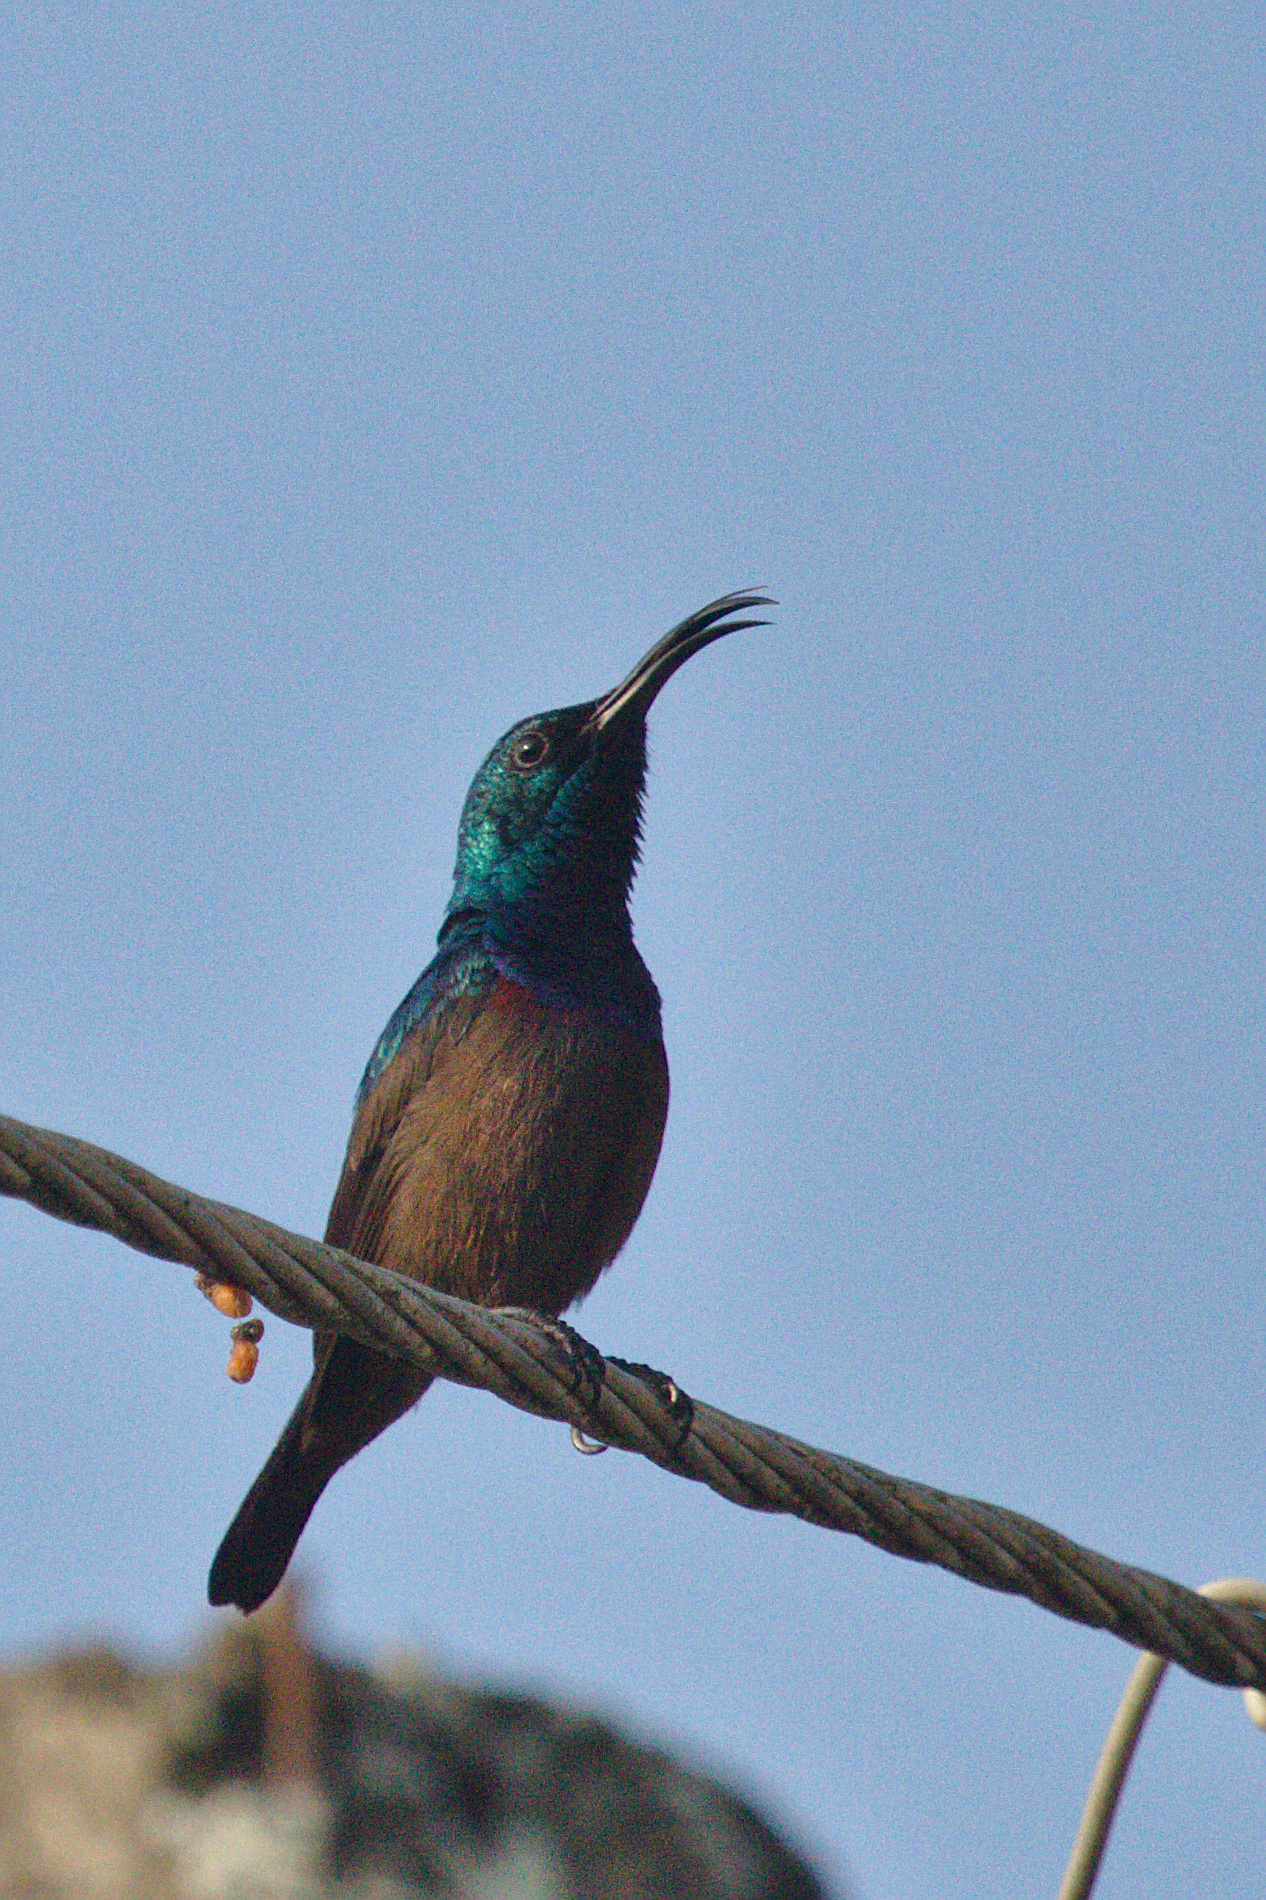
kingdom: Animalia
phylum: Chordata
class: Aves
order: Passeriformes
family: Nectariniidae
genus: Cinnyris
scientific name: Cinnyris lotenius
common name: Loten's sunbird
